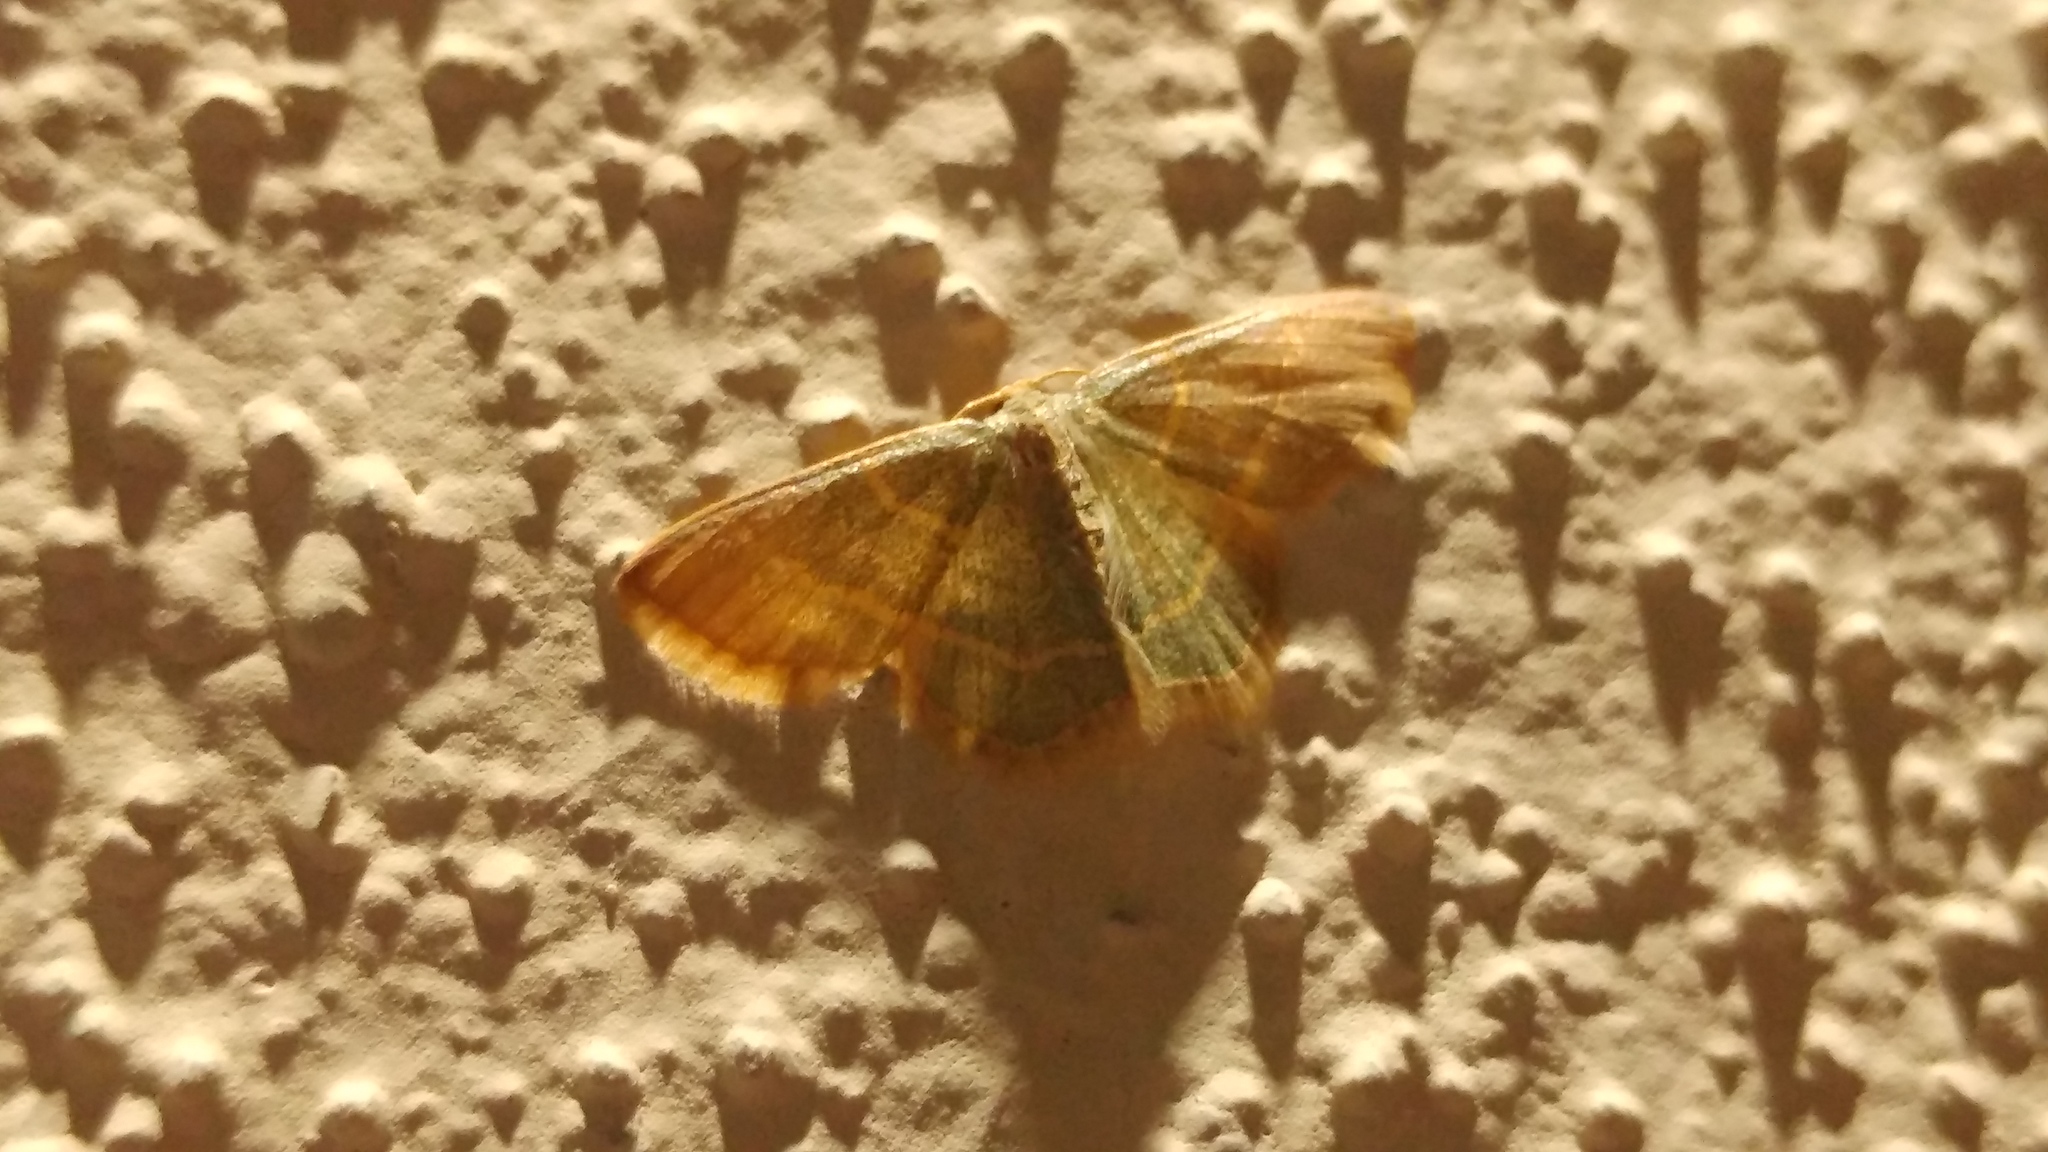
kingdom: Animalia
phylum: Arthropoda
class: Insecta
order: Lepidoptera
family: Geometridae
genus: Nemoria
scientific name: Nemoria bistriaria
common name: Red-fringed emerald
